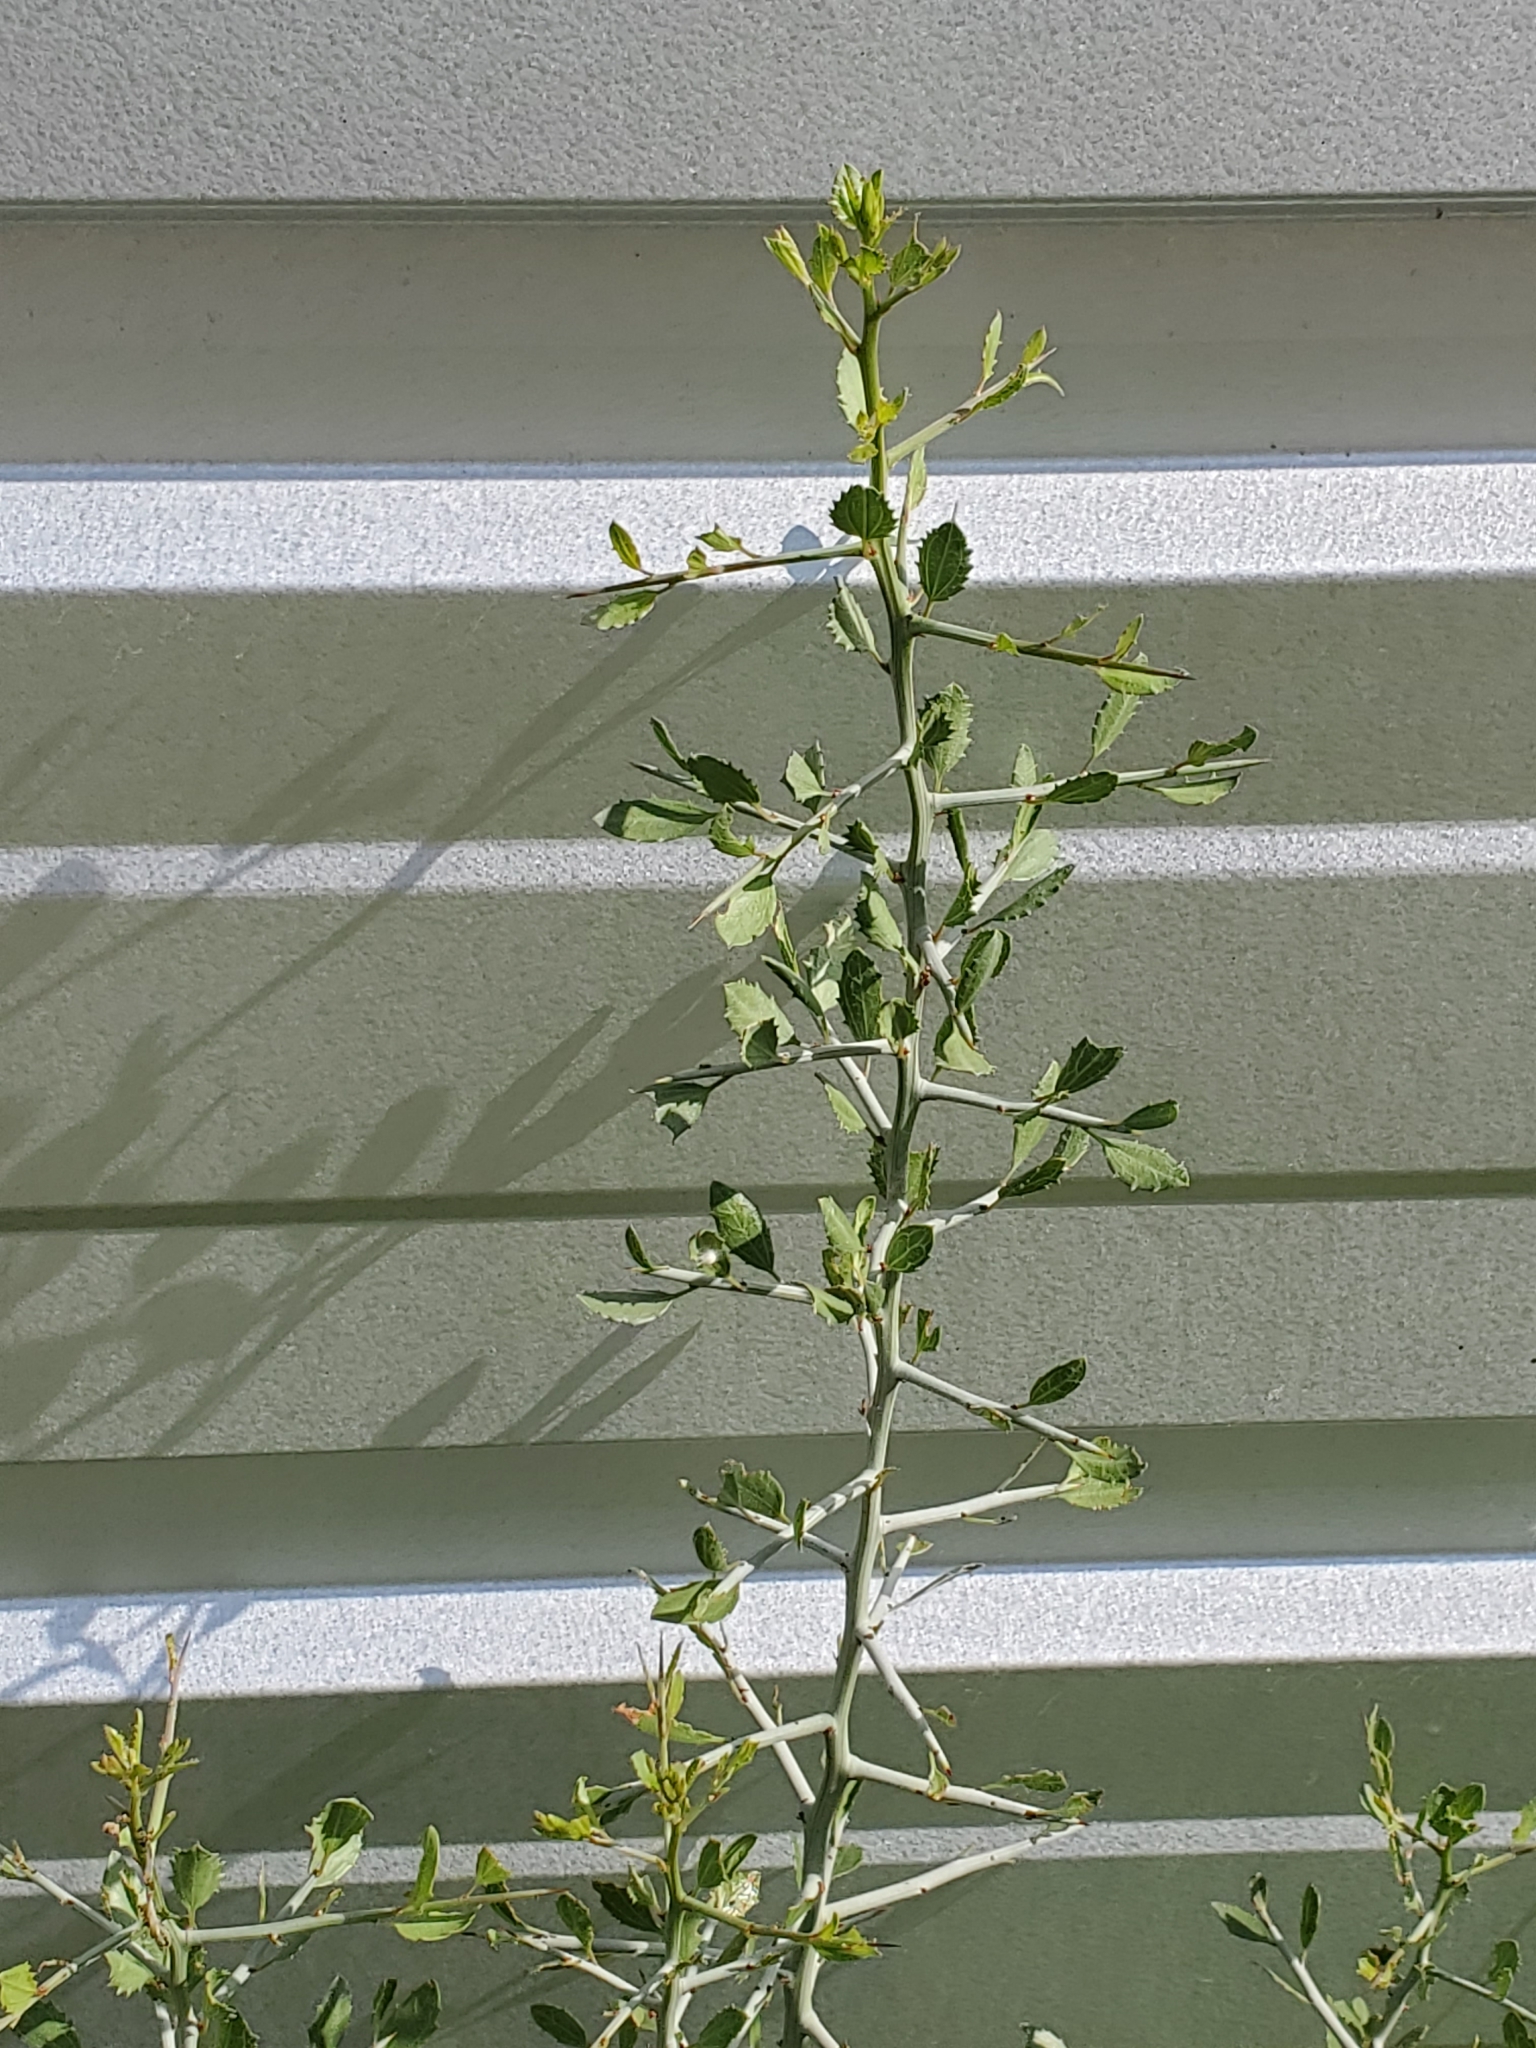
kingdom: Plantae
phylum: Tracheophyta
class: Magnoliopsida
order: Rosales
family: Rhamnaceae
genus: Sarcomphalus
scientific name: Sarcomphalus obtusifolius
